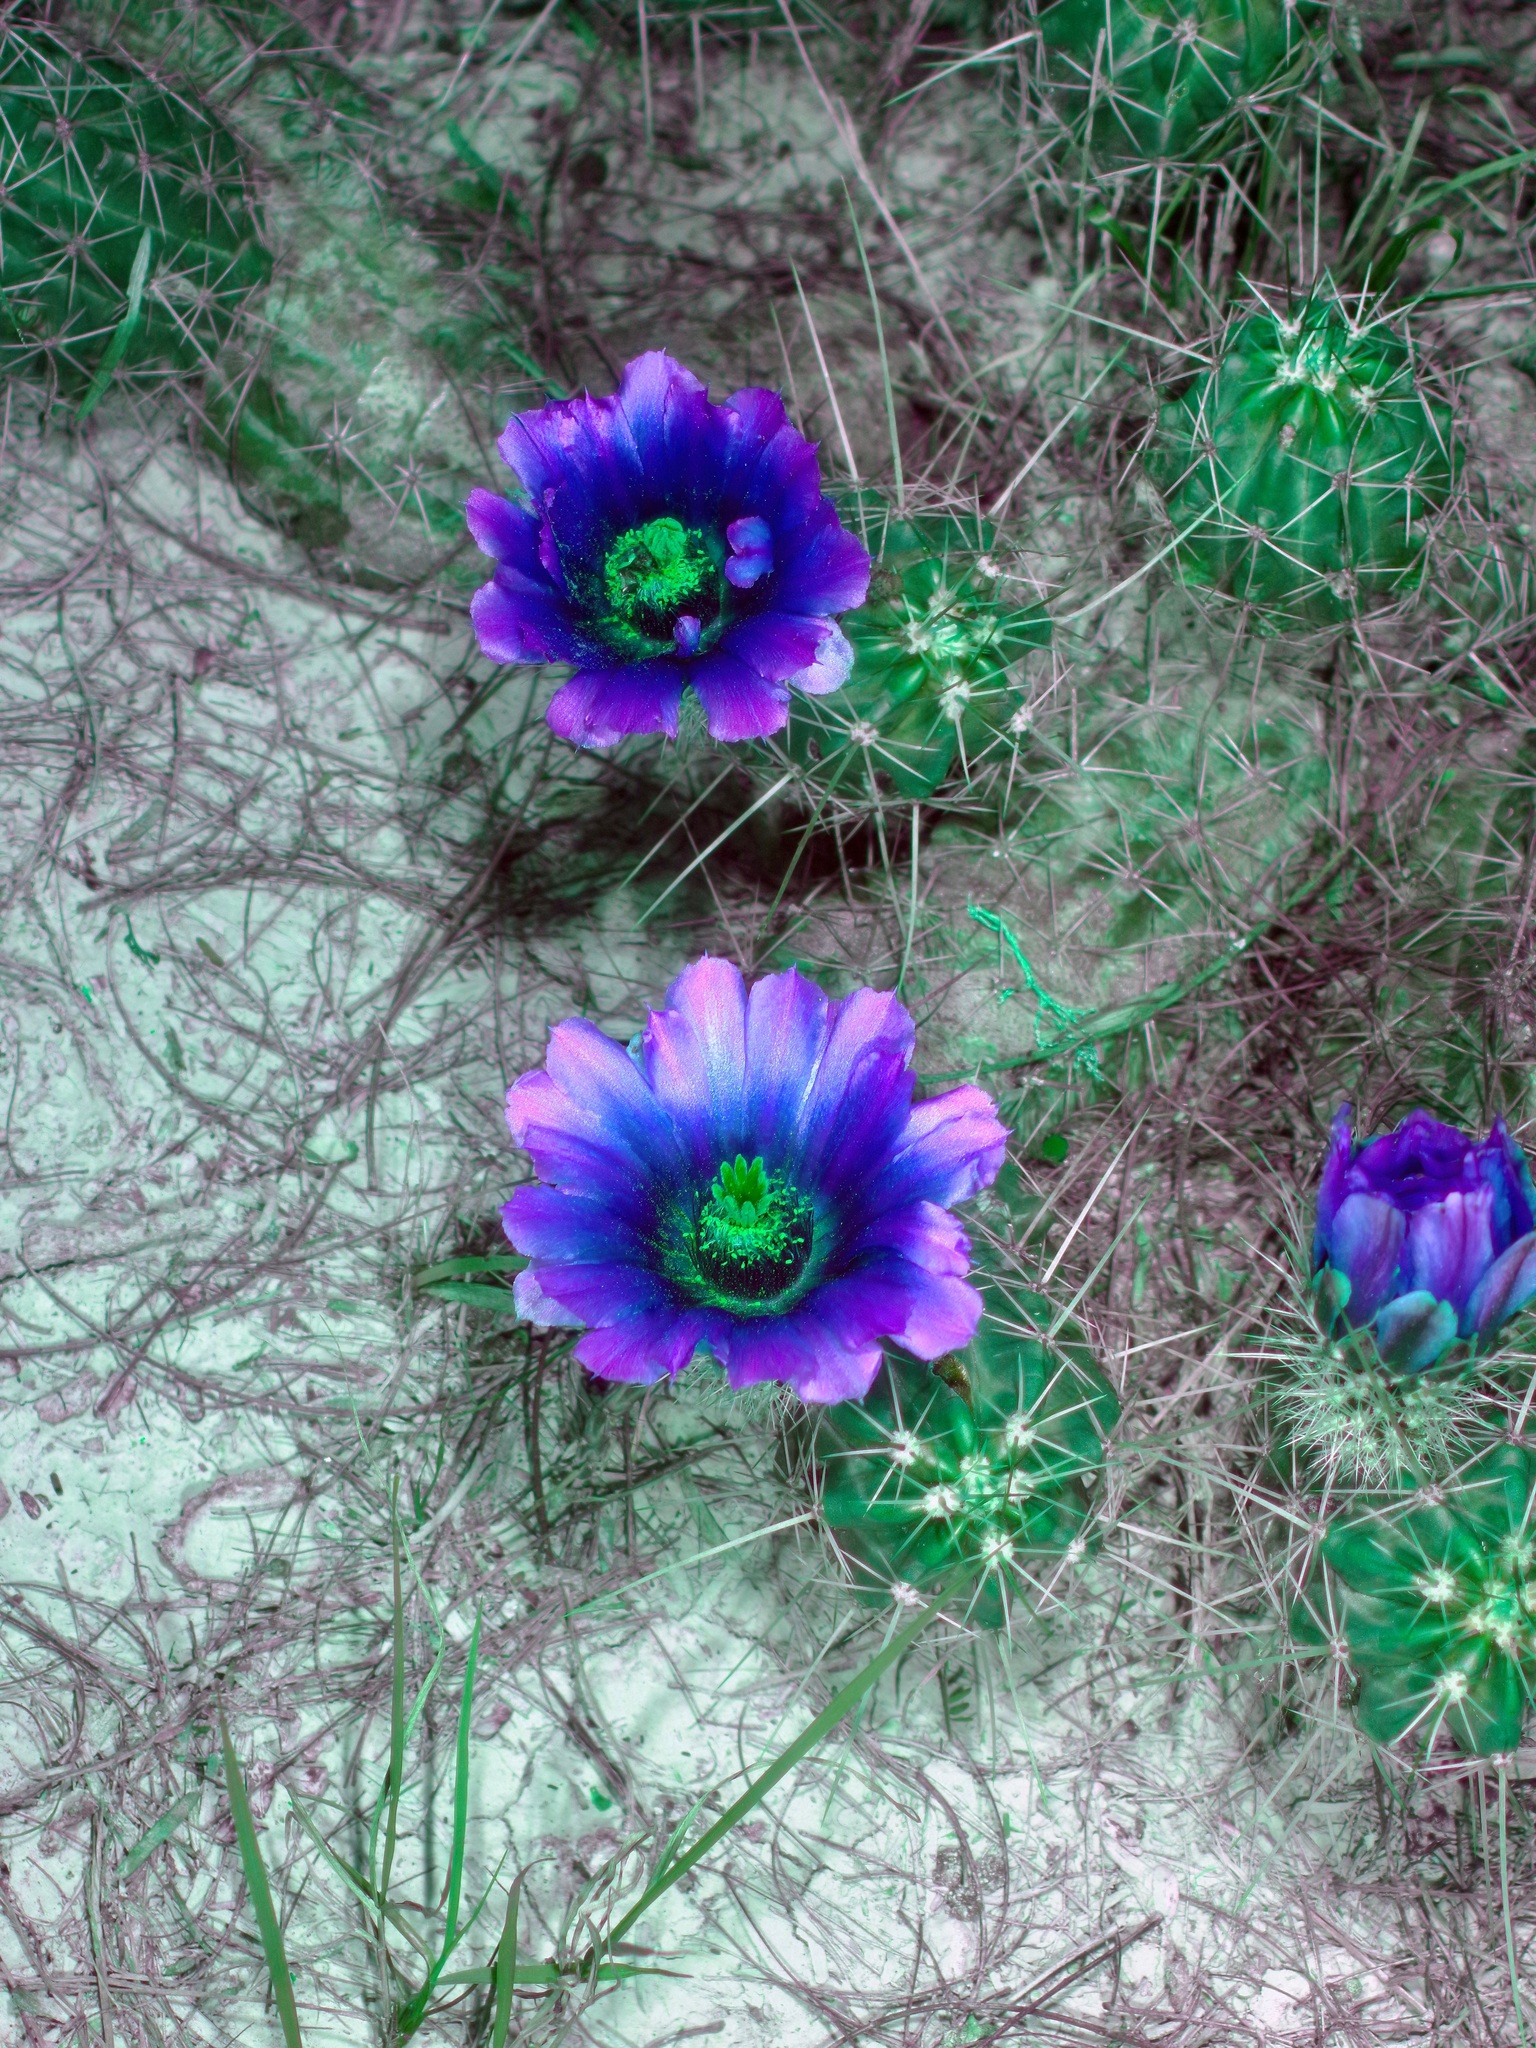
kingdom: Plantae
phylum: Tracheophyta
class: Magnoliopsida
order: Caryophyllales
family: Cactaceae
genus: Echinocereus
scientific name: Echinocereus enneacanthus
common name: Pitaya
